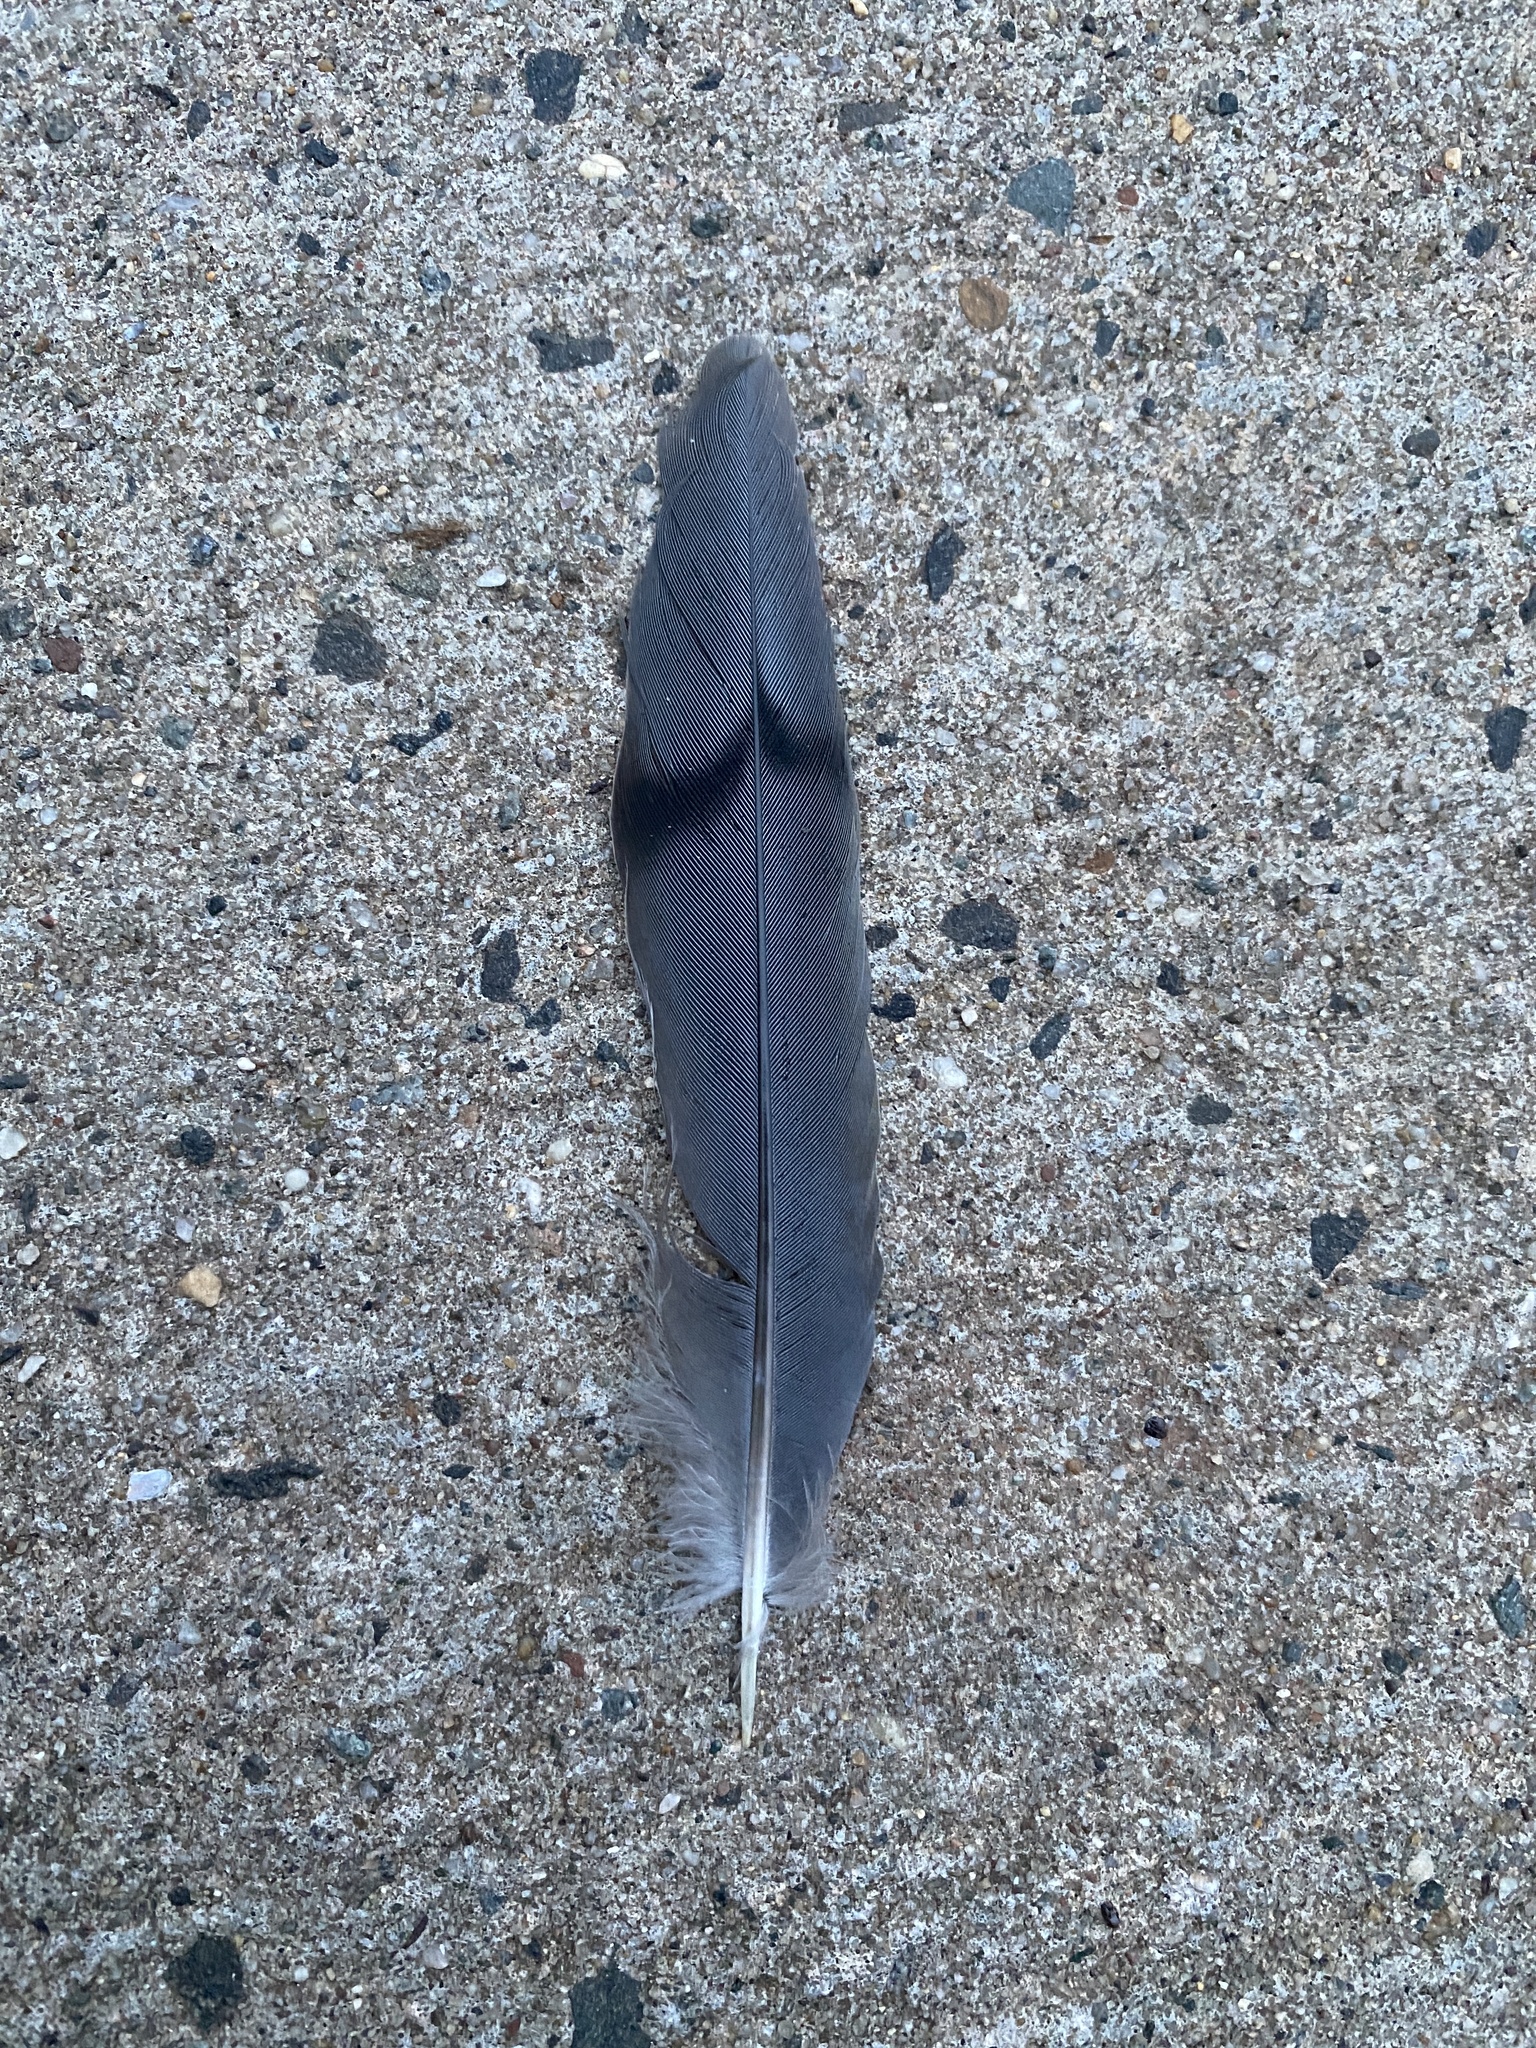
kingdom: Animalia
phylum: Chordata
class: Aves
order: Columbiformes
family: Columbidae
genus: Zenaida
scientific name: Zenaida macroura
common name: Mourning dove
